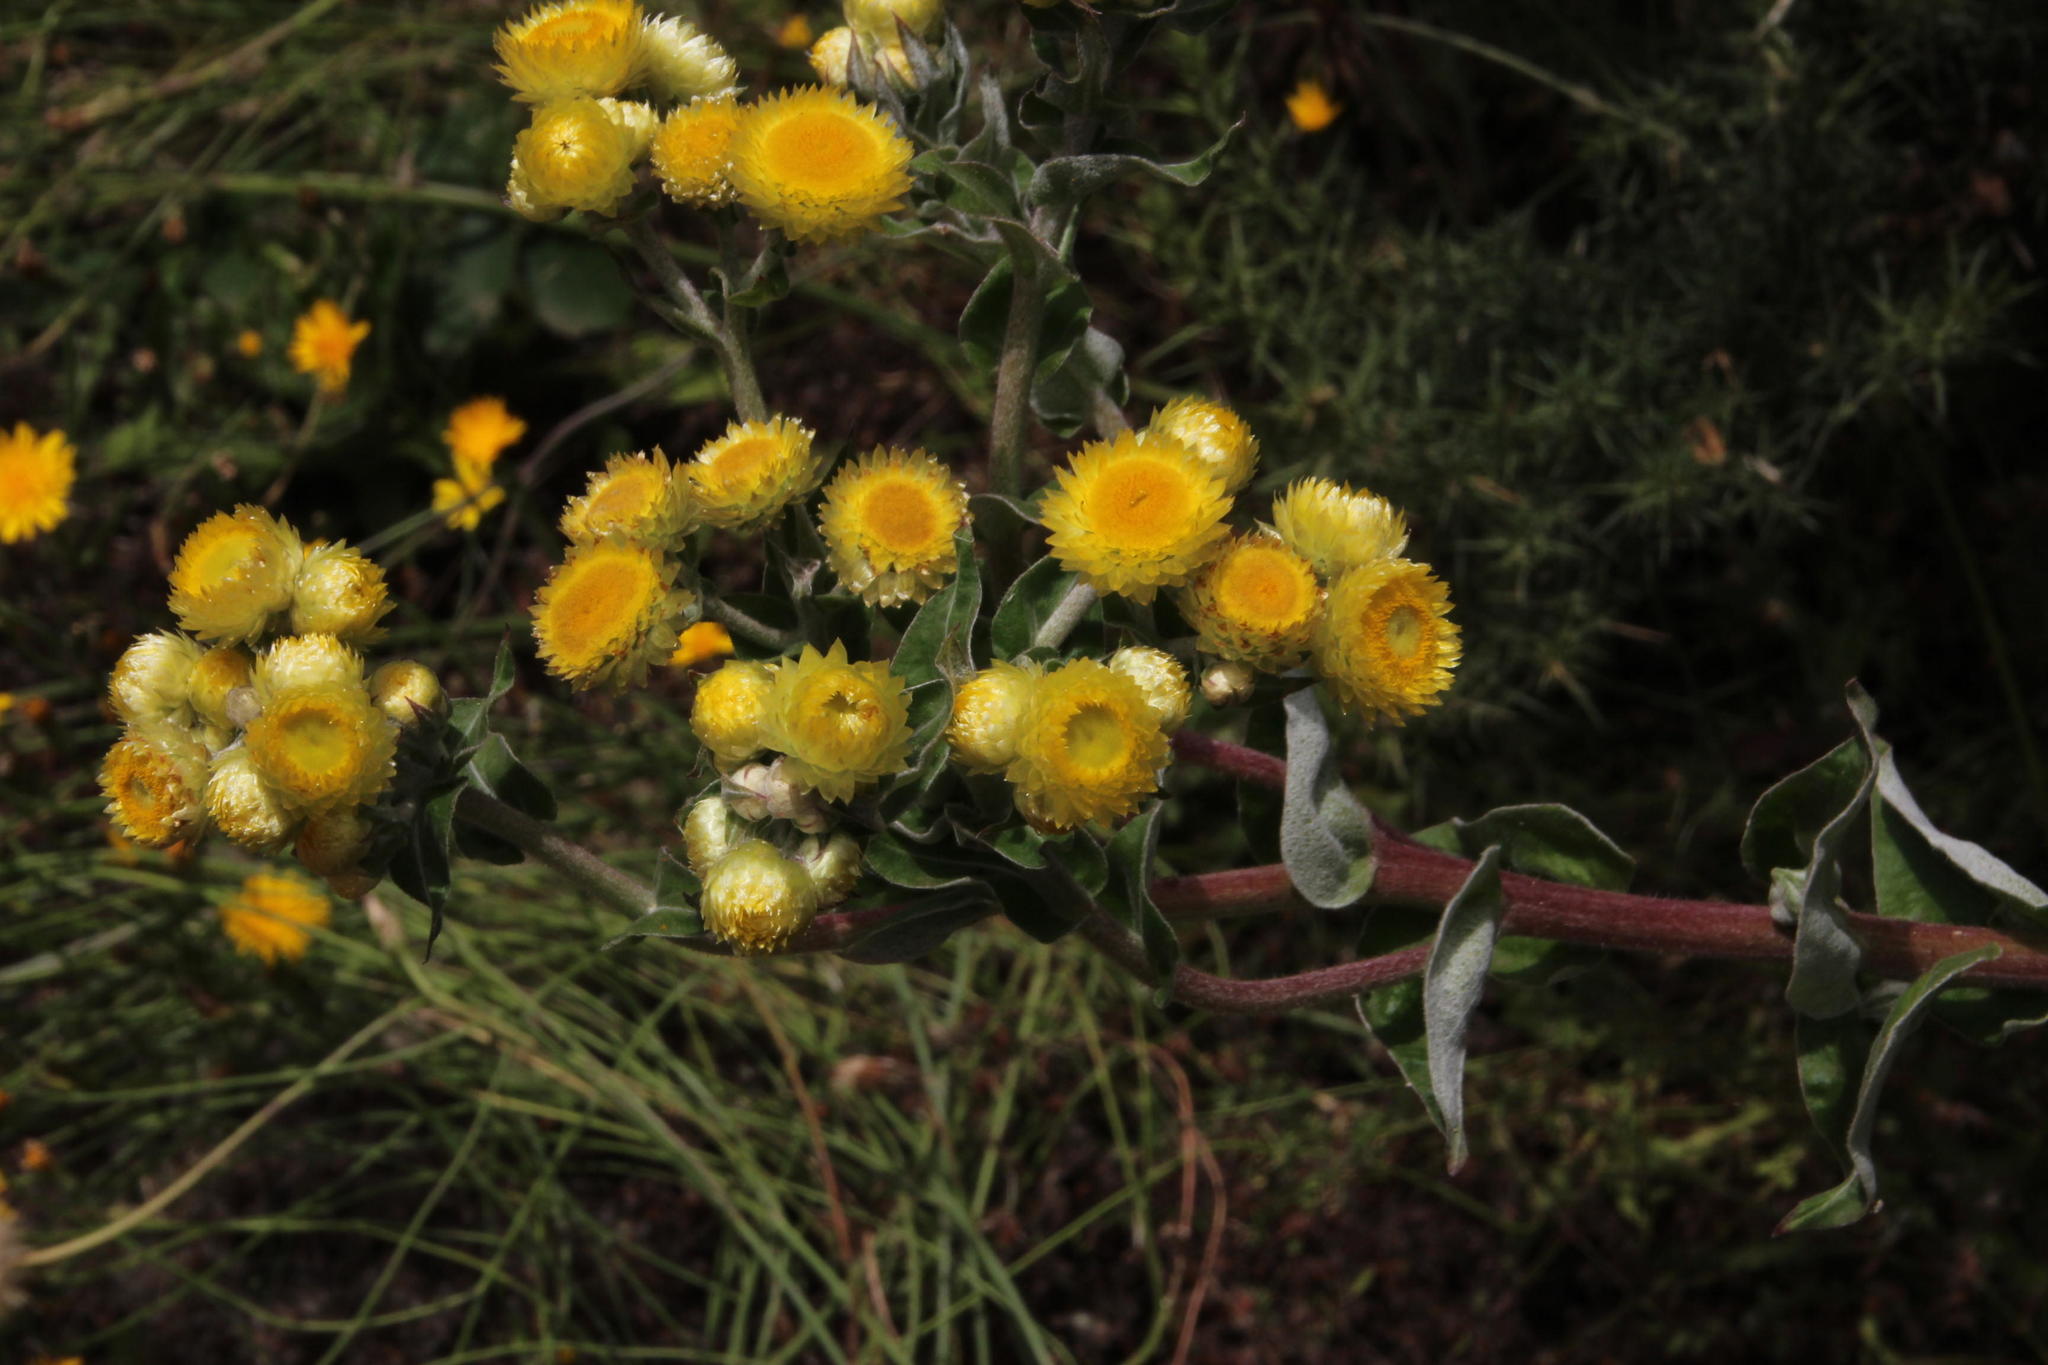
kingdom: Plantae
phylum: Tracheophyta
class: Magnoliopsida
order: Asterales
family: Asteraceae
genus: Helichrysum
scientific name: Helichrysum foetidum
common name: Stinking everlasting
